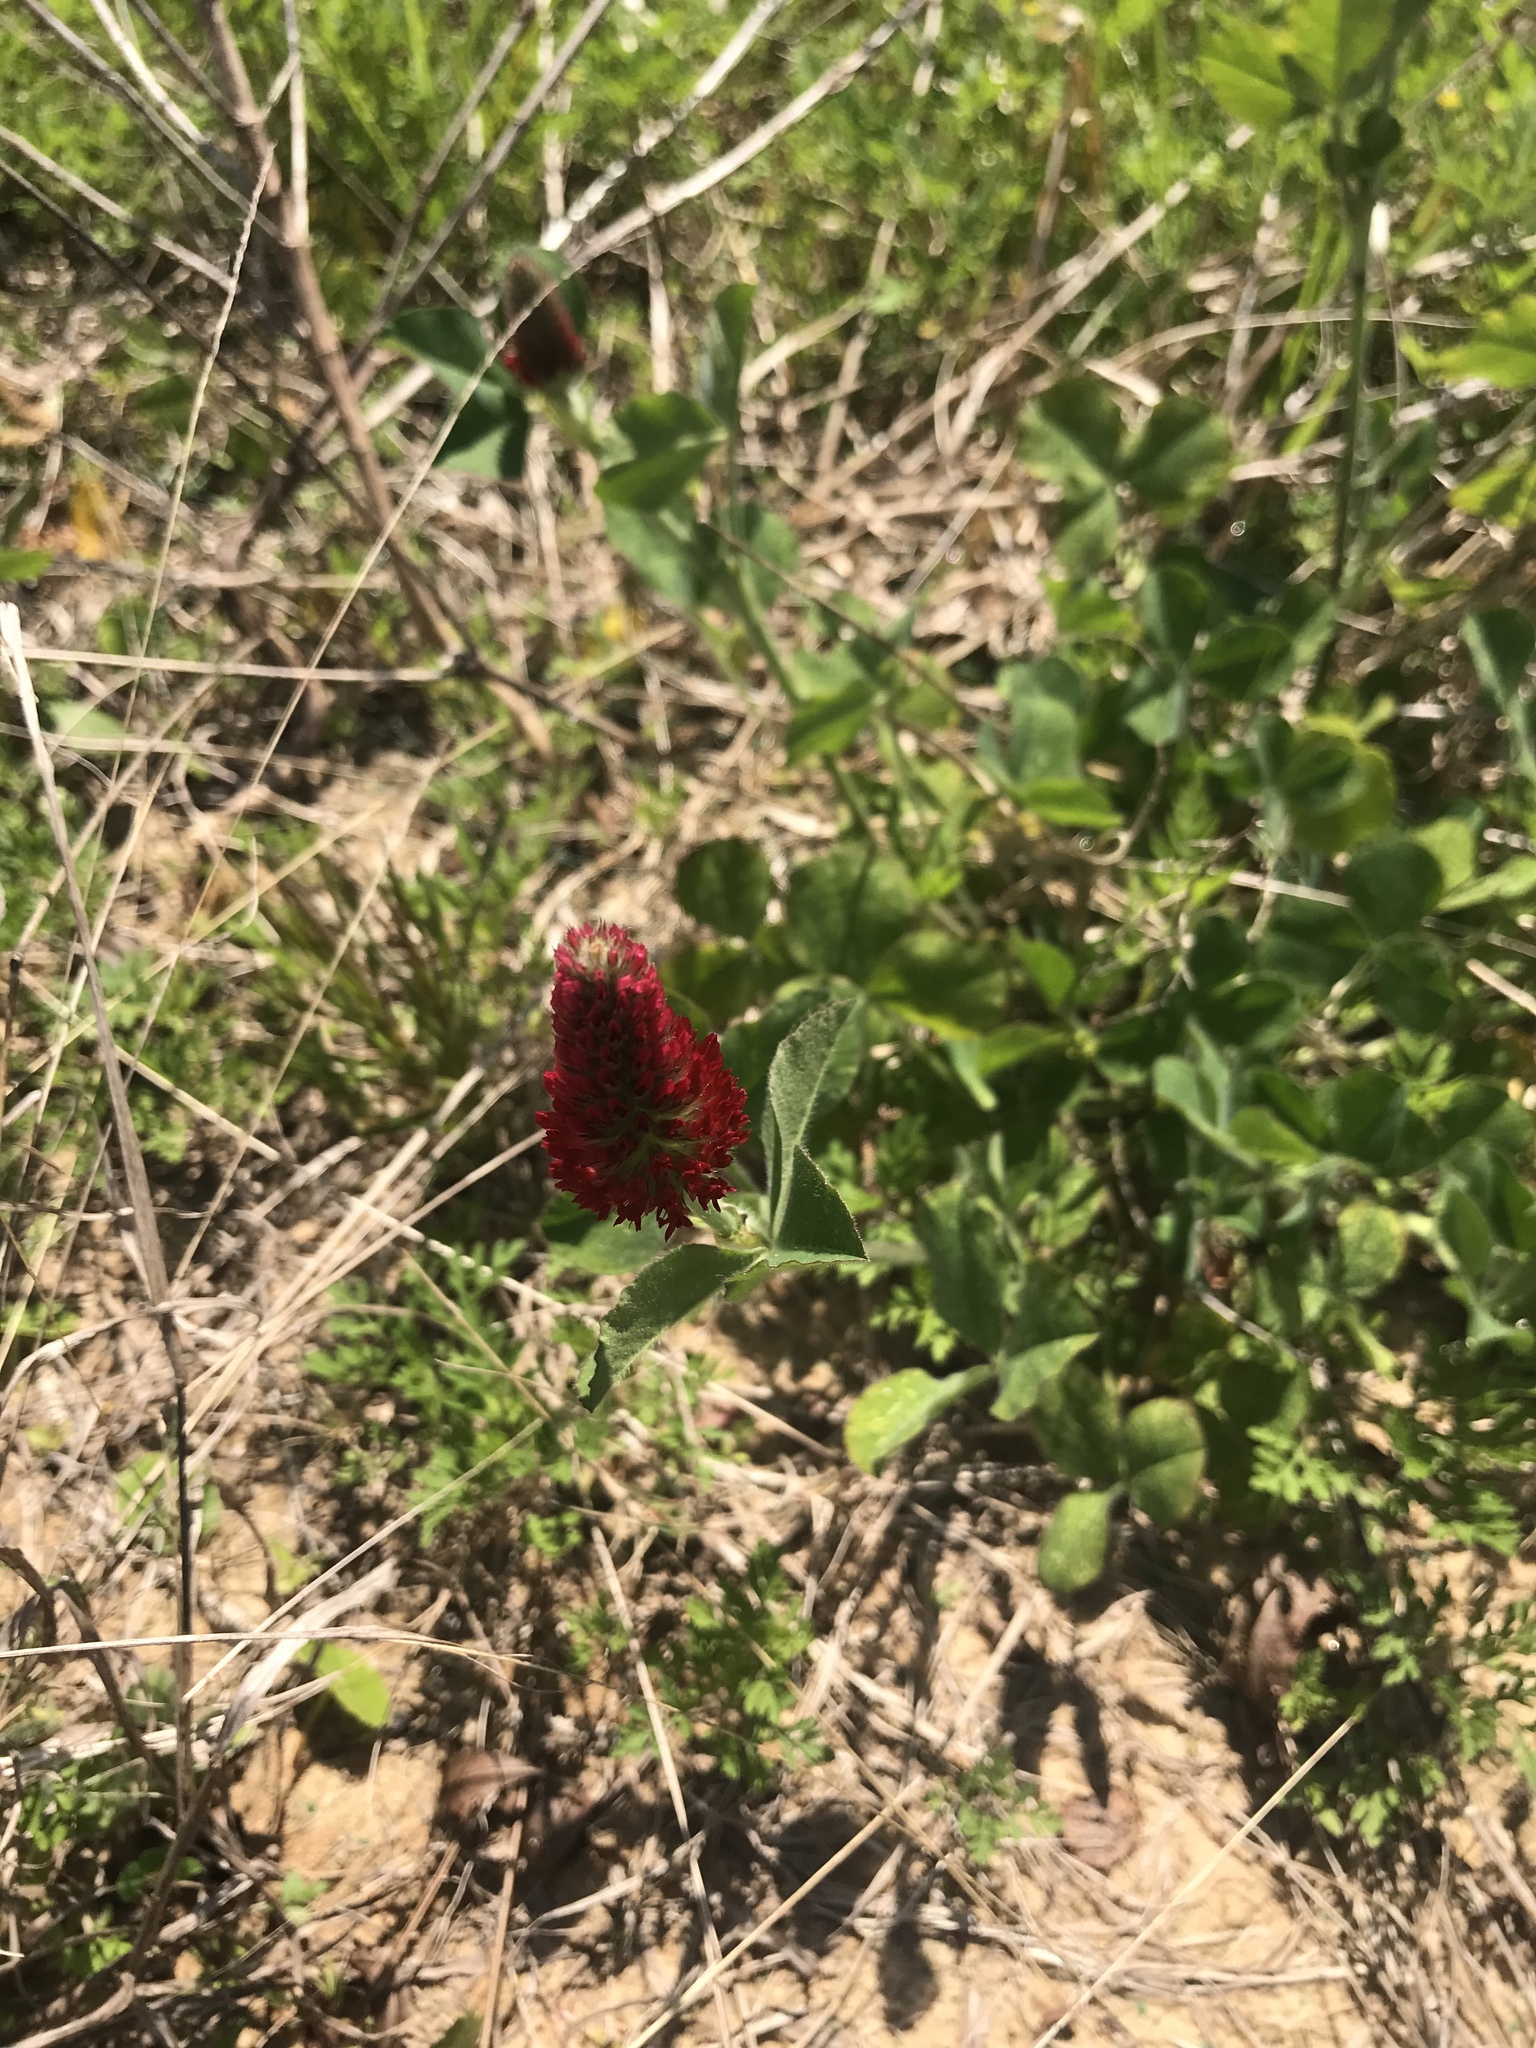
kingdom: Plantae
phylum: Tracheophyta
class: Magnoliopsida
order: Fabales
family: Fabaceae
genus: Trifolium
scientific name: Trifolium incarnatum
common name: Crimson clover
